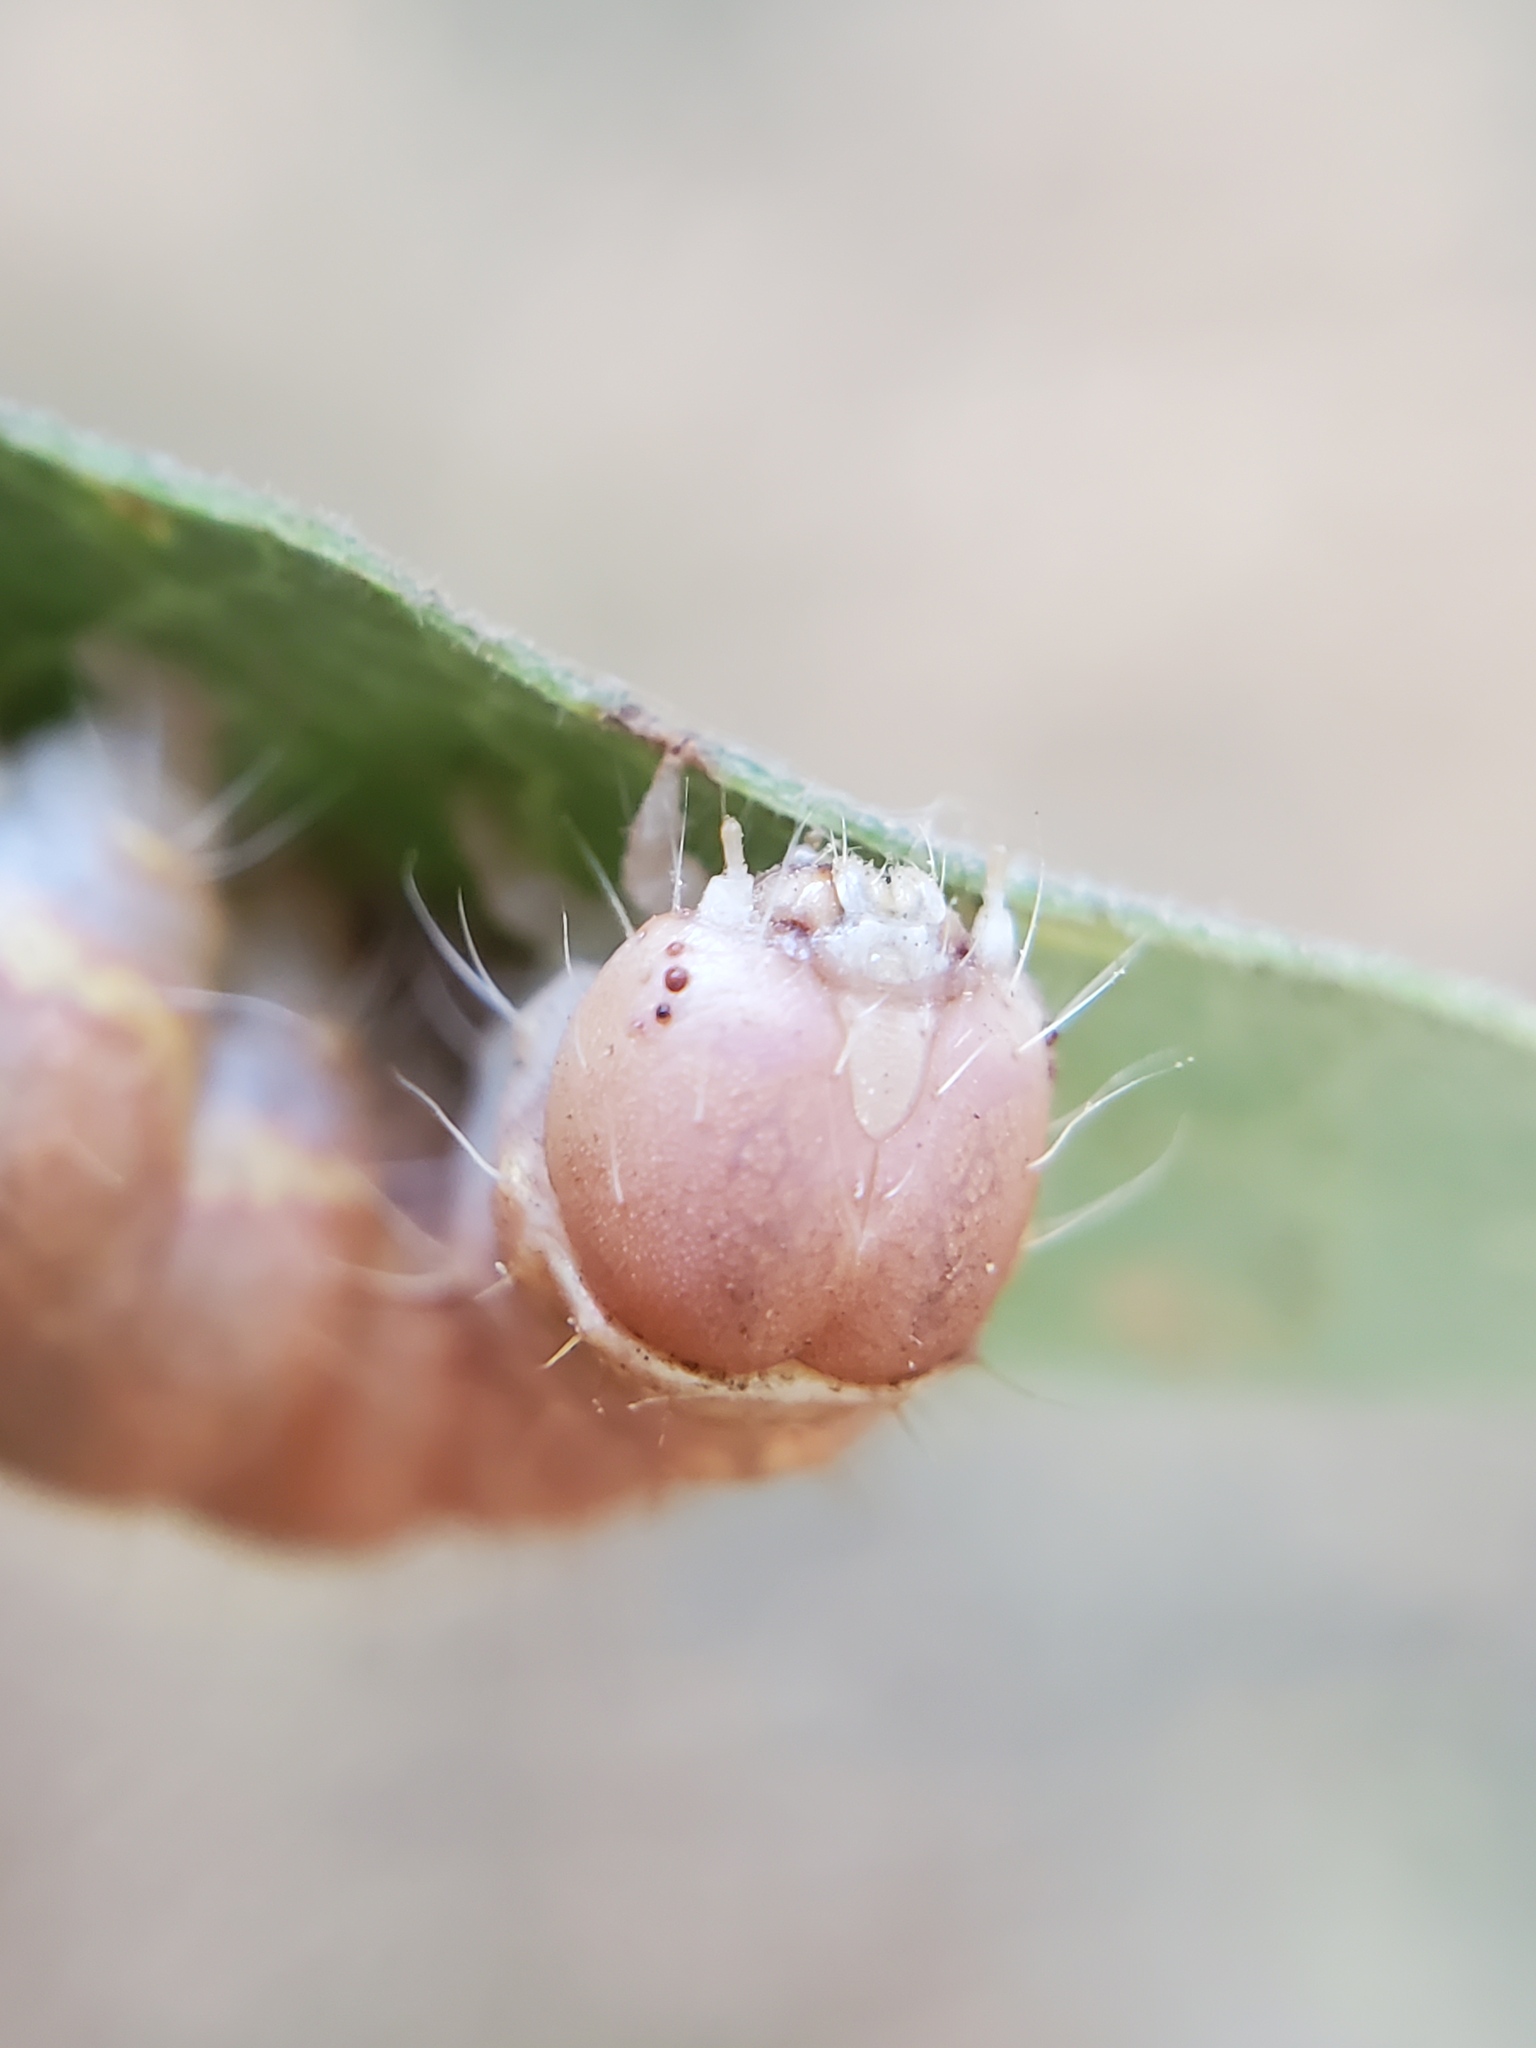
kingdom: Animalia
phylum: Arthropoda
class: Insecta
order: Lepidoptera
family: Noctuidae
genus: Acronicta
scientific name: Acronicta marmorata
